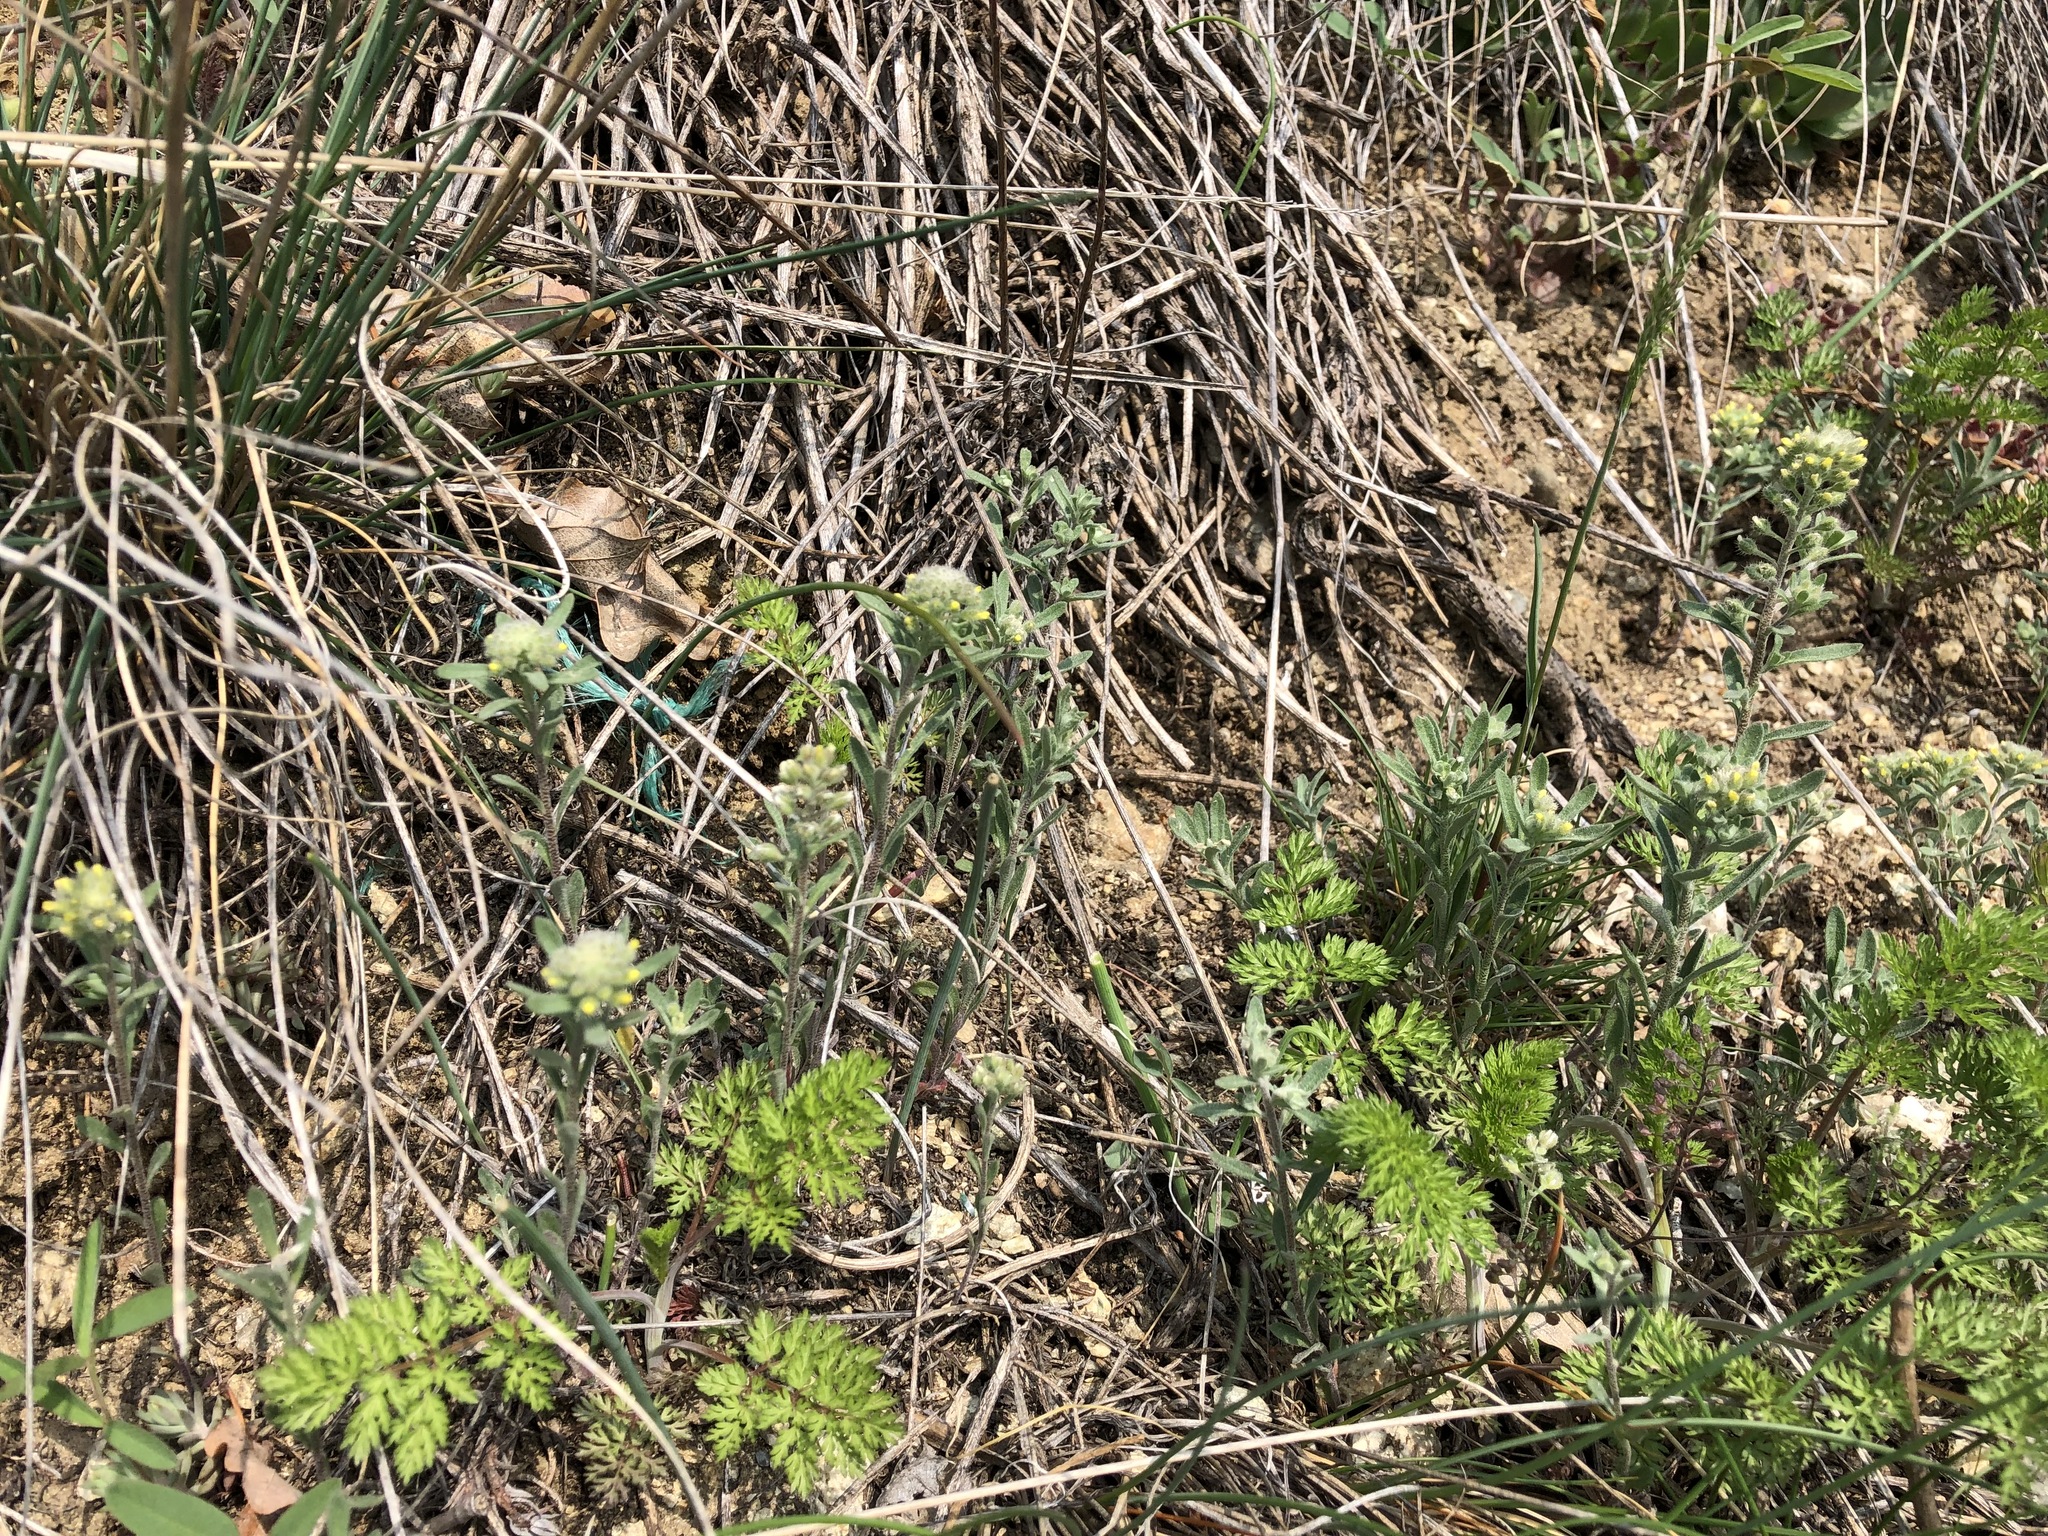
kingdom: Plantae
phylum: Tracheophyta
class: Magnoliopsida
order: Brassicales
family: Brassicaceae
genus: Alyssum
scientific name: Alyssum alyssoides
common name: Small alison
